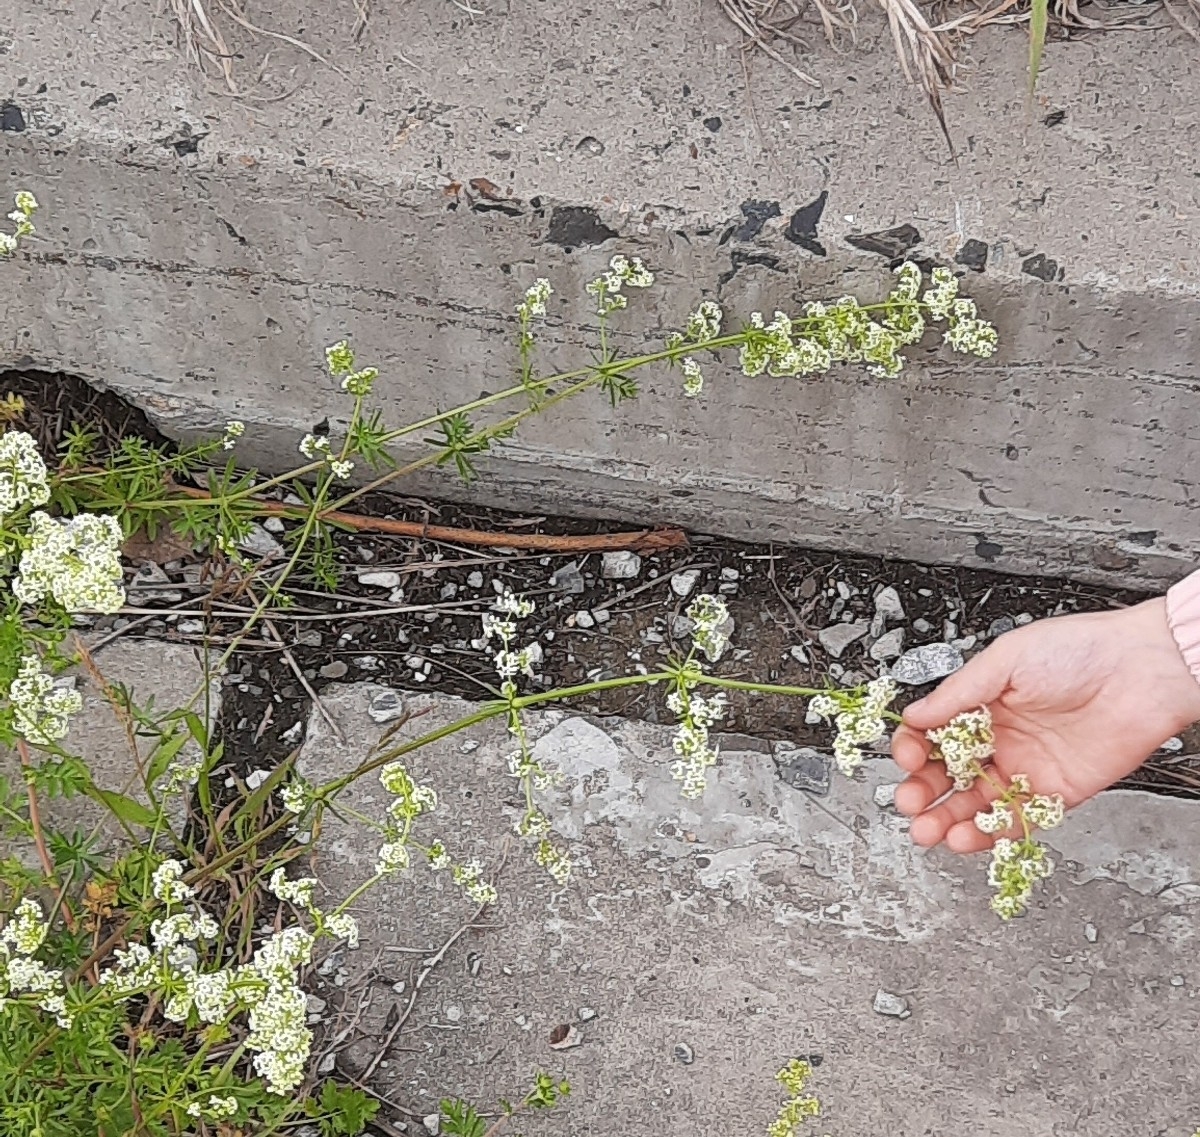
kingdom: Plantae
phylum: Tracheophyta
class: Magnoliopsida
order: Gentianales
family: Rubiaceae
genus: Galium
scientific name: Galium mollugo
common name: Hedge bedstraw
